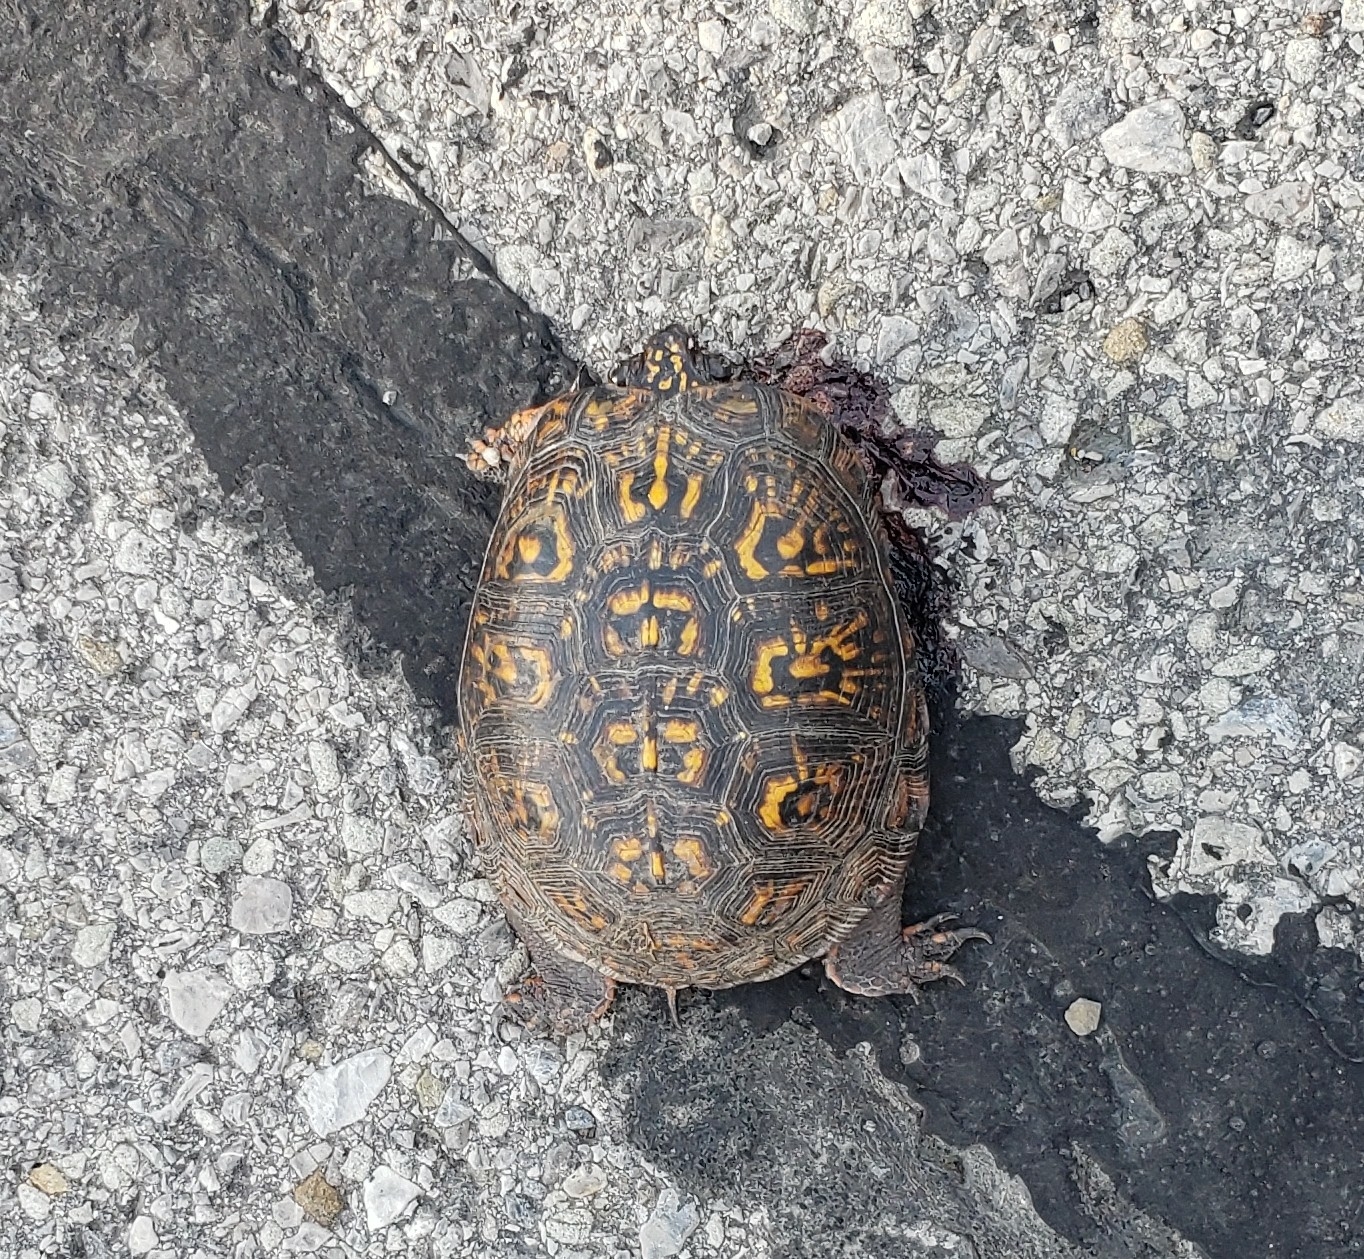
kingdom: Animalia
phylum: Chordata
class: Testudines
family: Emydidae
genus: Terrapene
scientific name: Terrapene carolina
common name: Common box turtle
